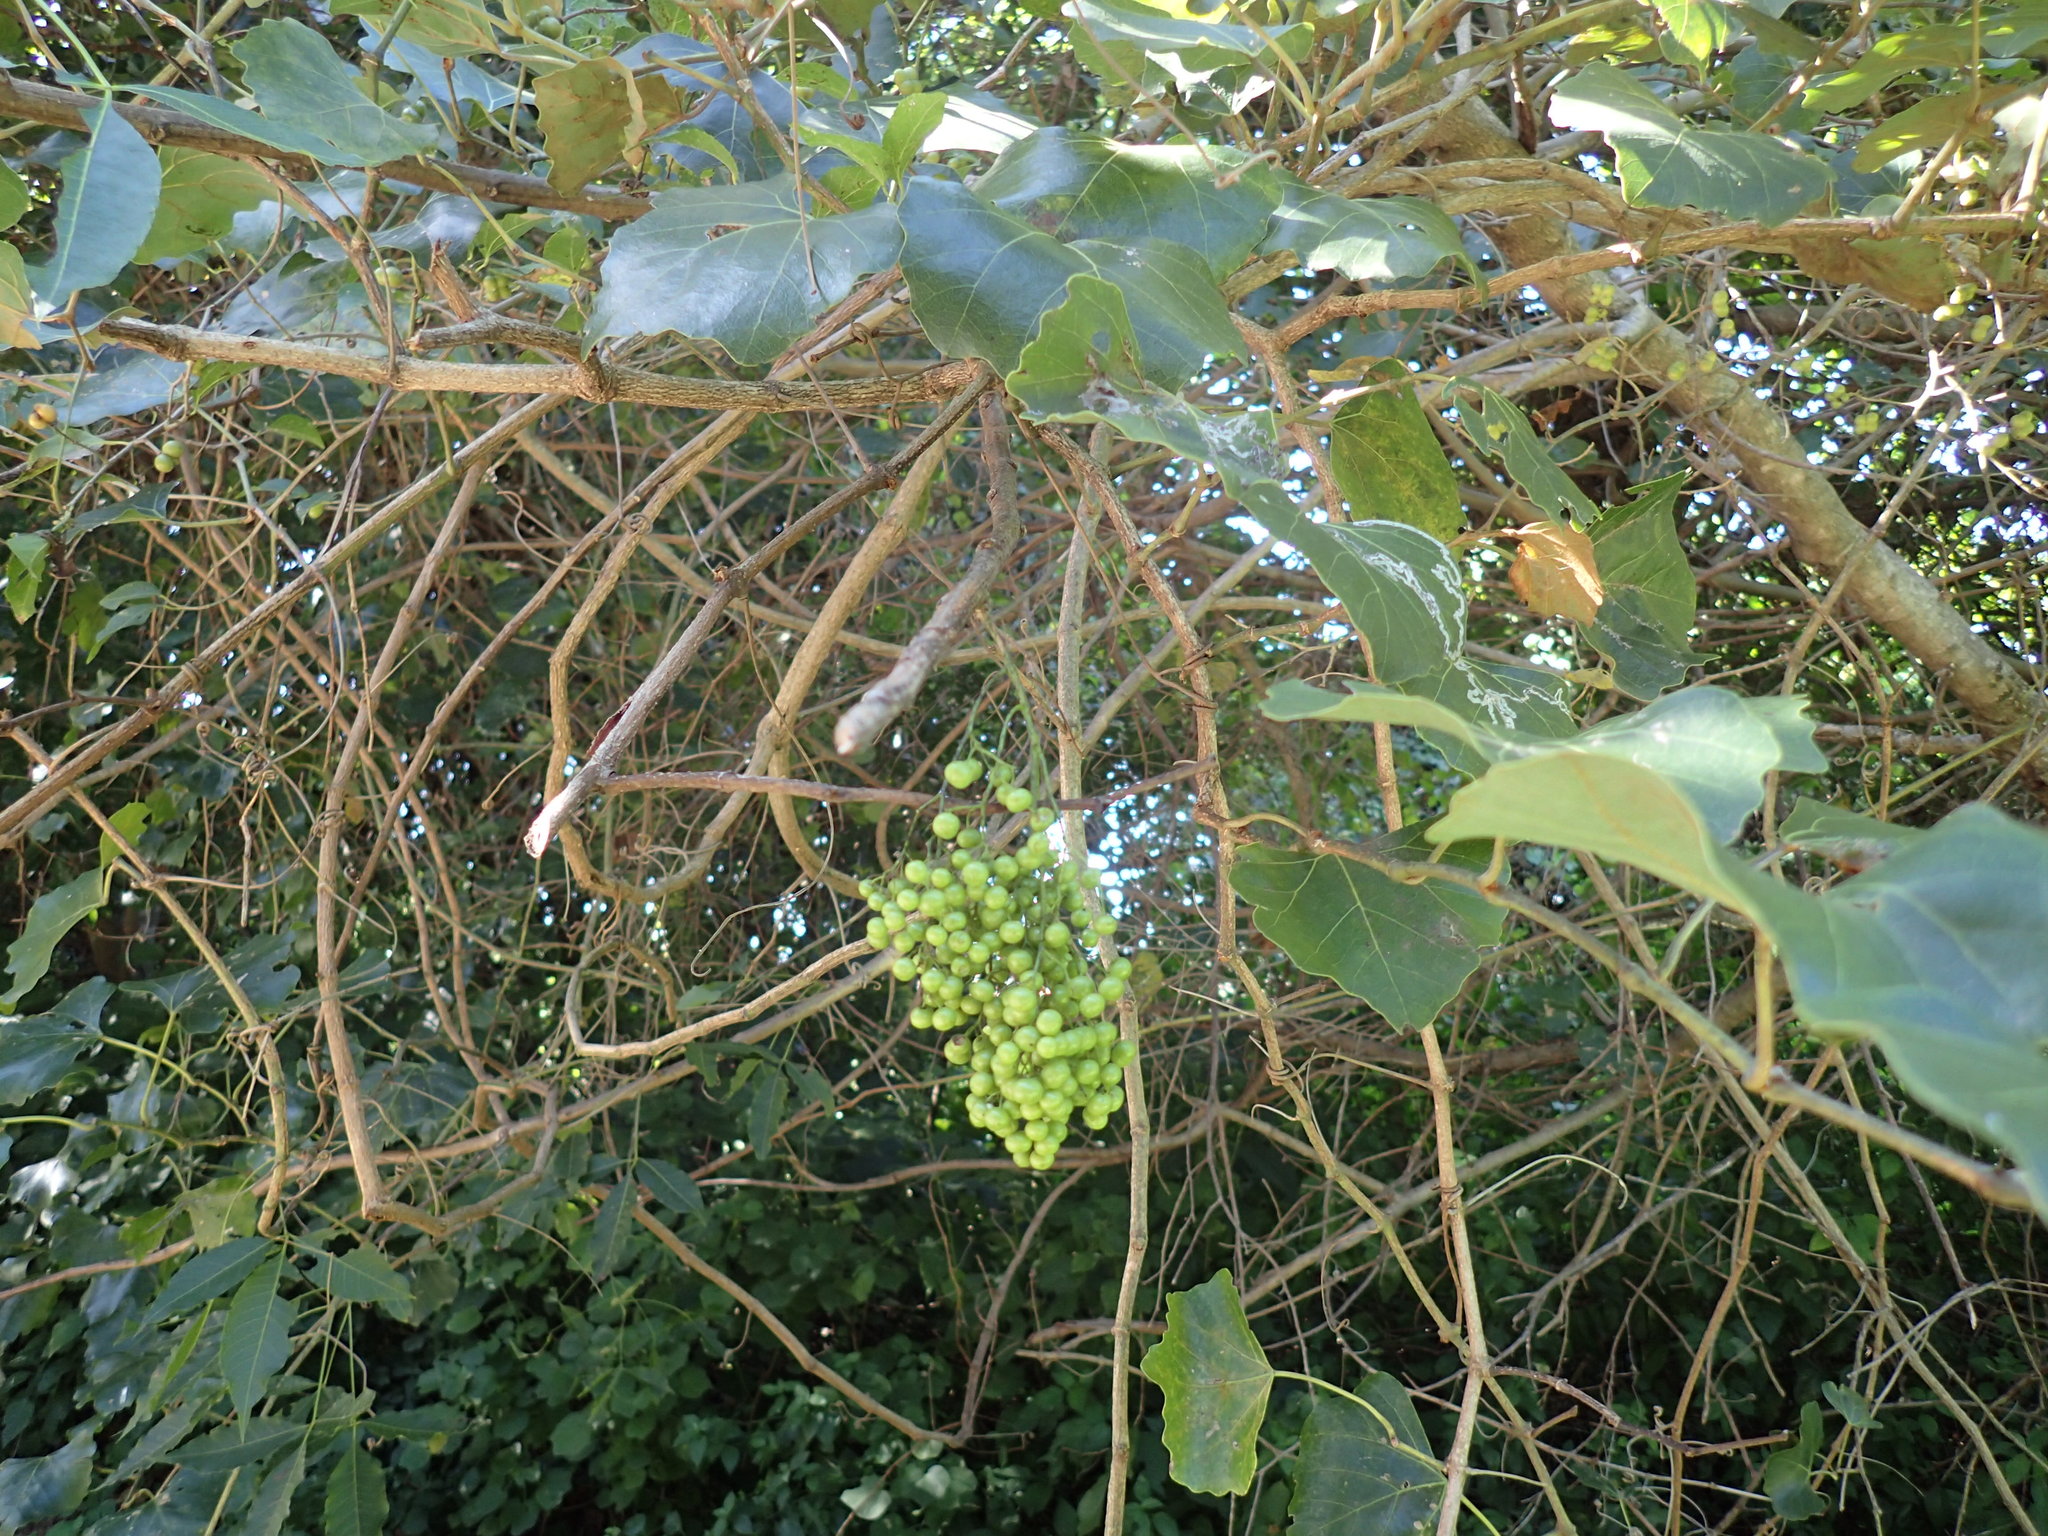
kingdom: Plantae
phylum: Tracheophyta
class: Magnoliopsida
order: Vitales
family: Vitaceae
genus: Rhoicissus
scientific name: Rhoicissus tomentosa
